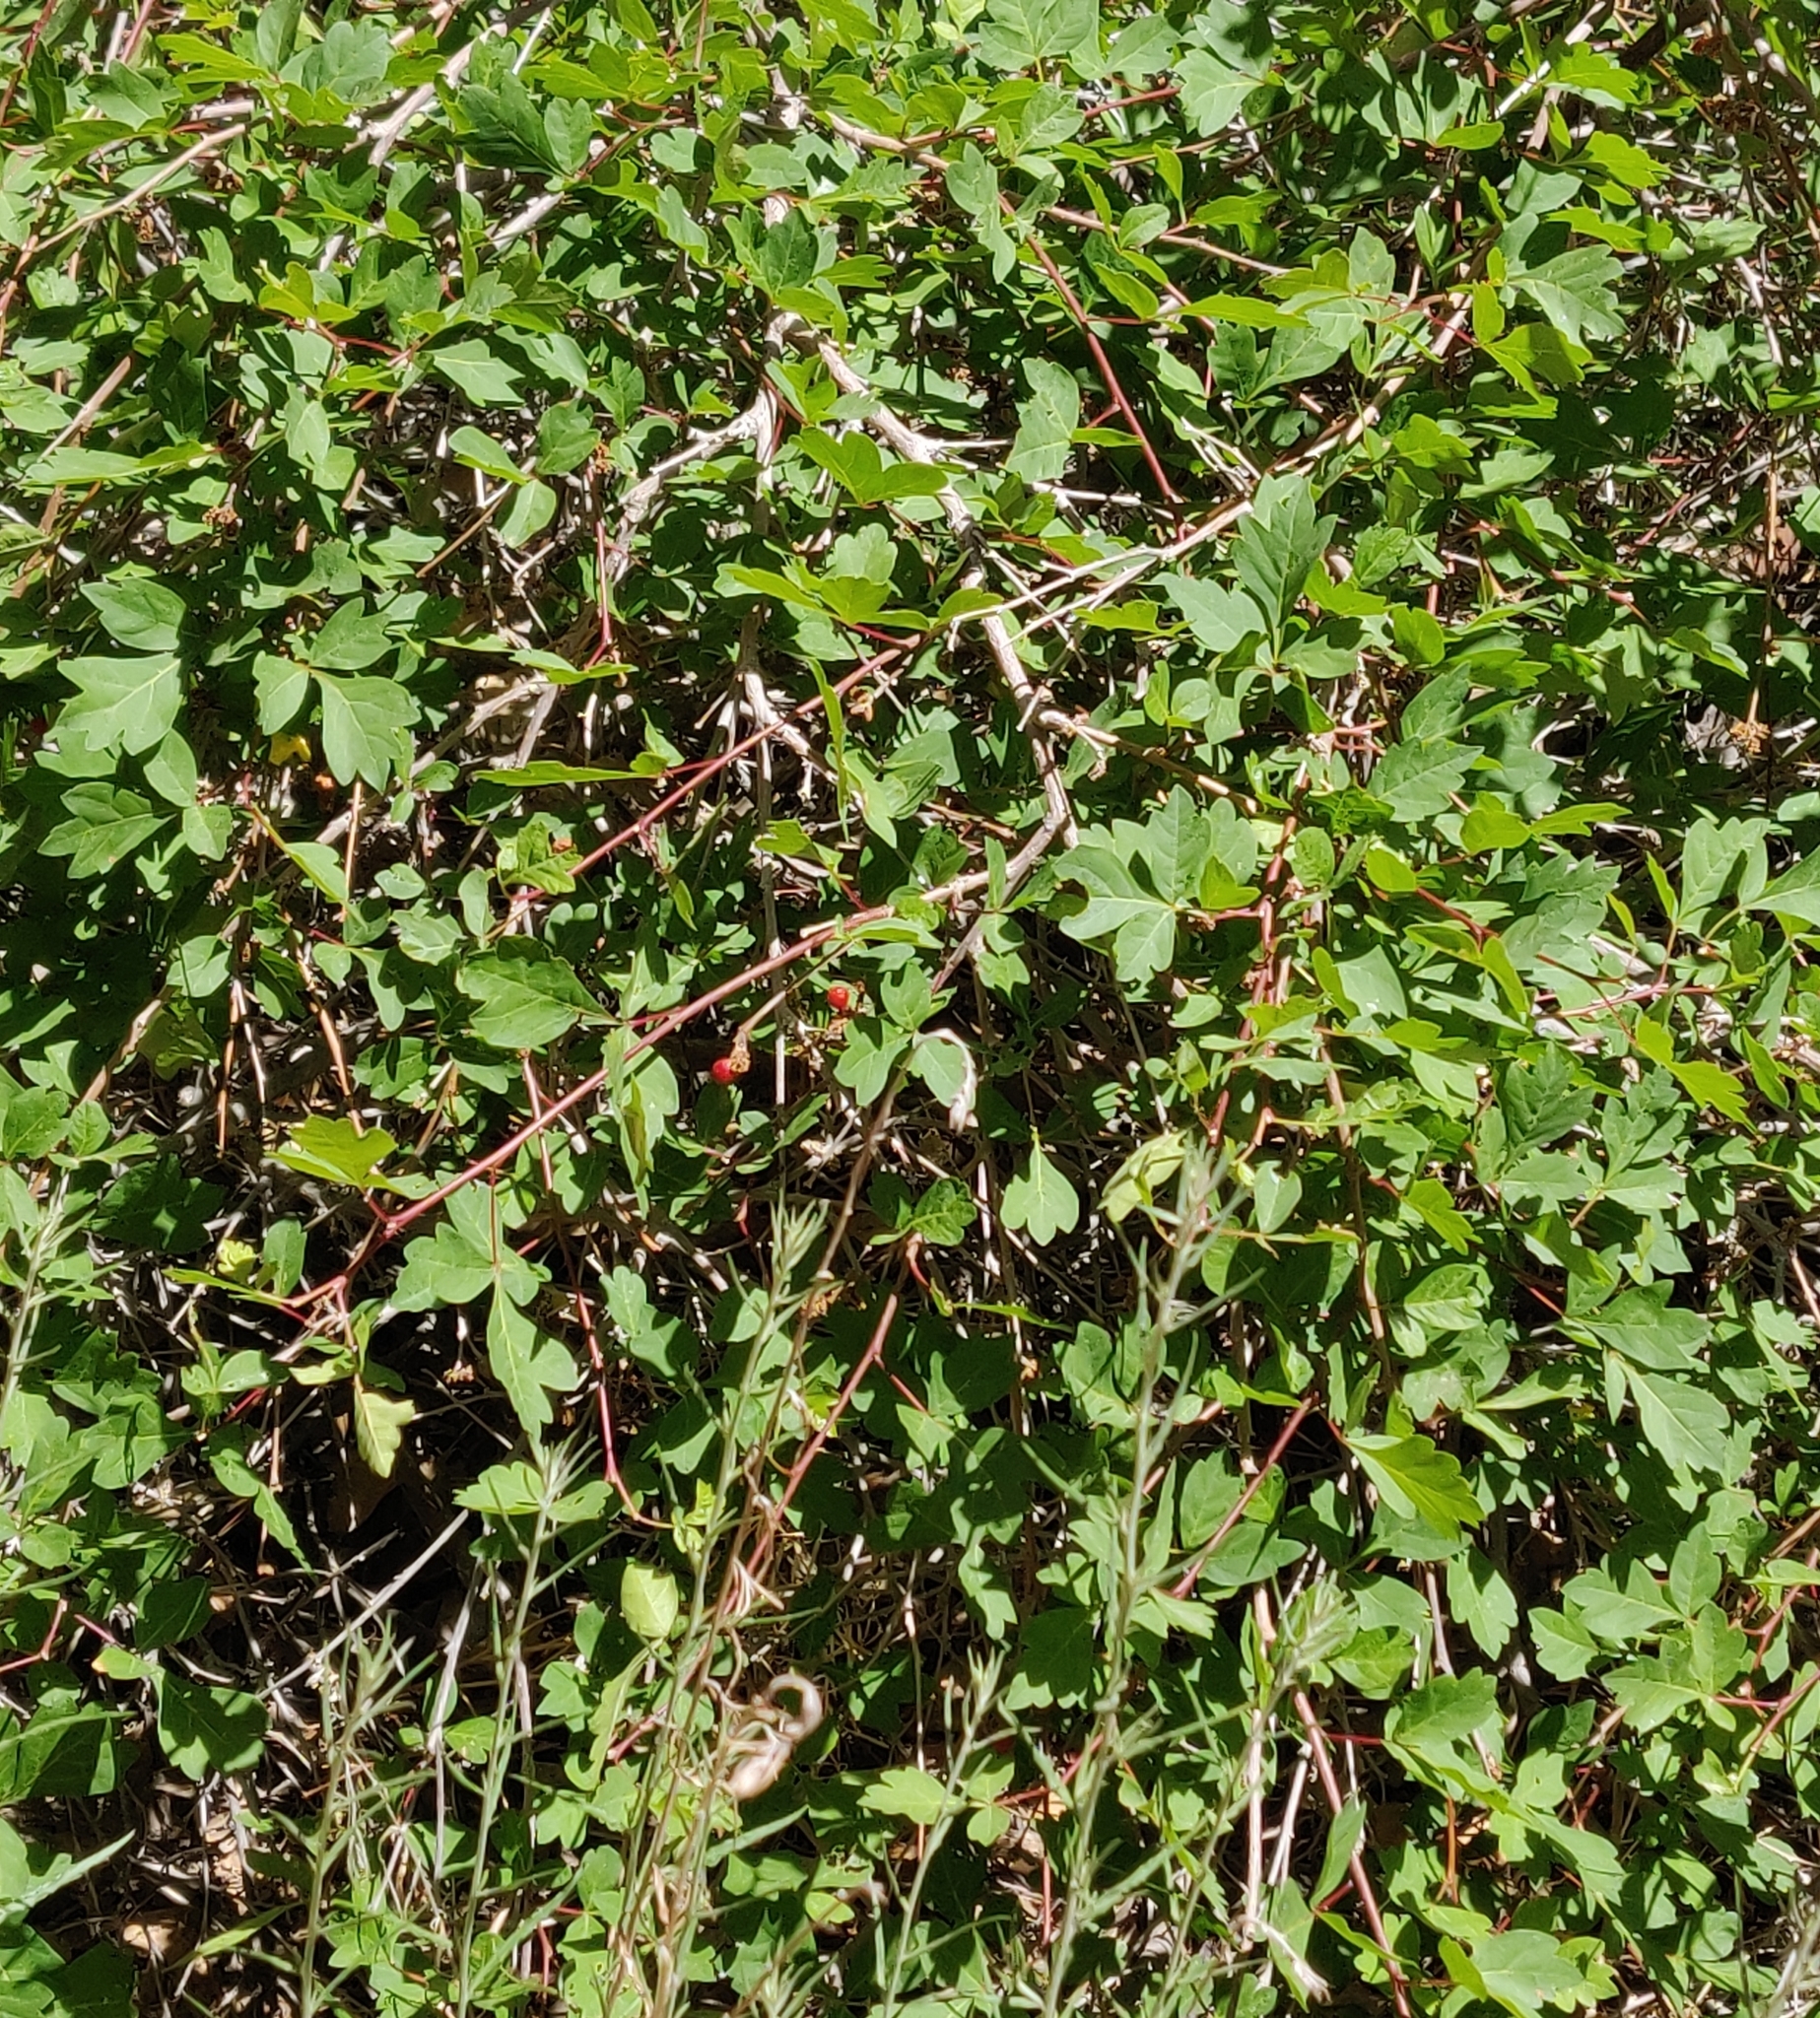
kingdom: Plantae
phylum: Tracheophyta
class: Magnoliopsida
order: Sapindales
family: Anacardiaceae
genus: Rhus
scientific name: Rhus trilobata
